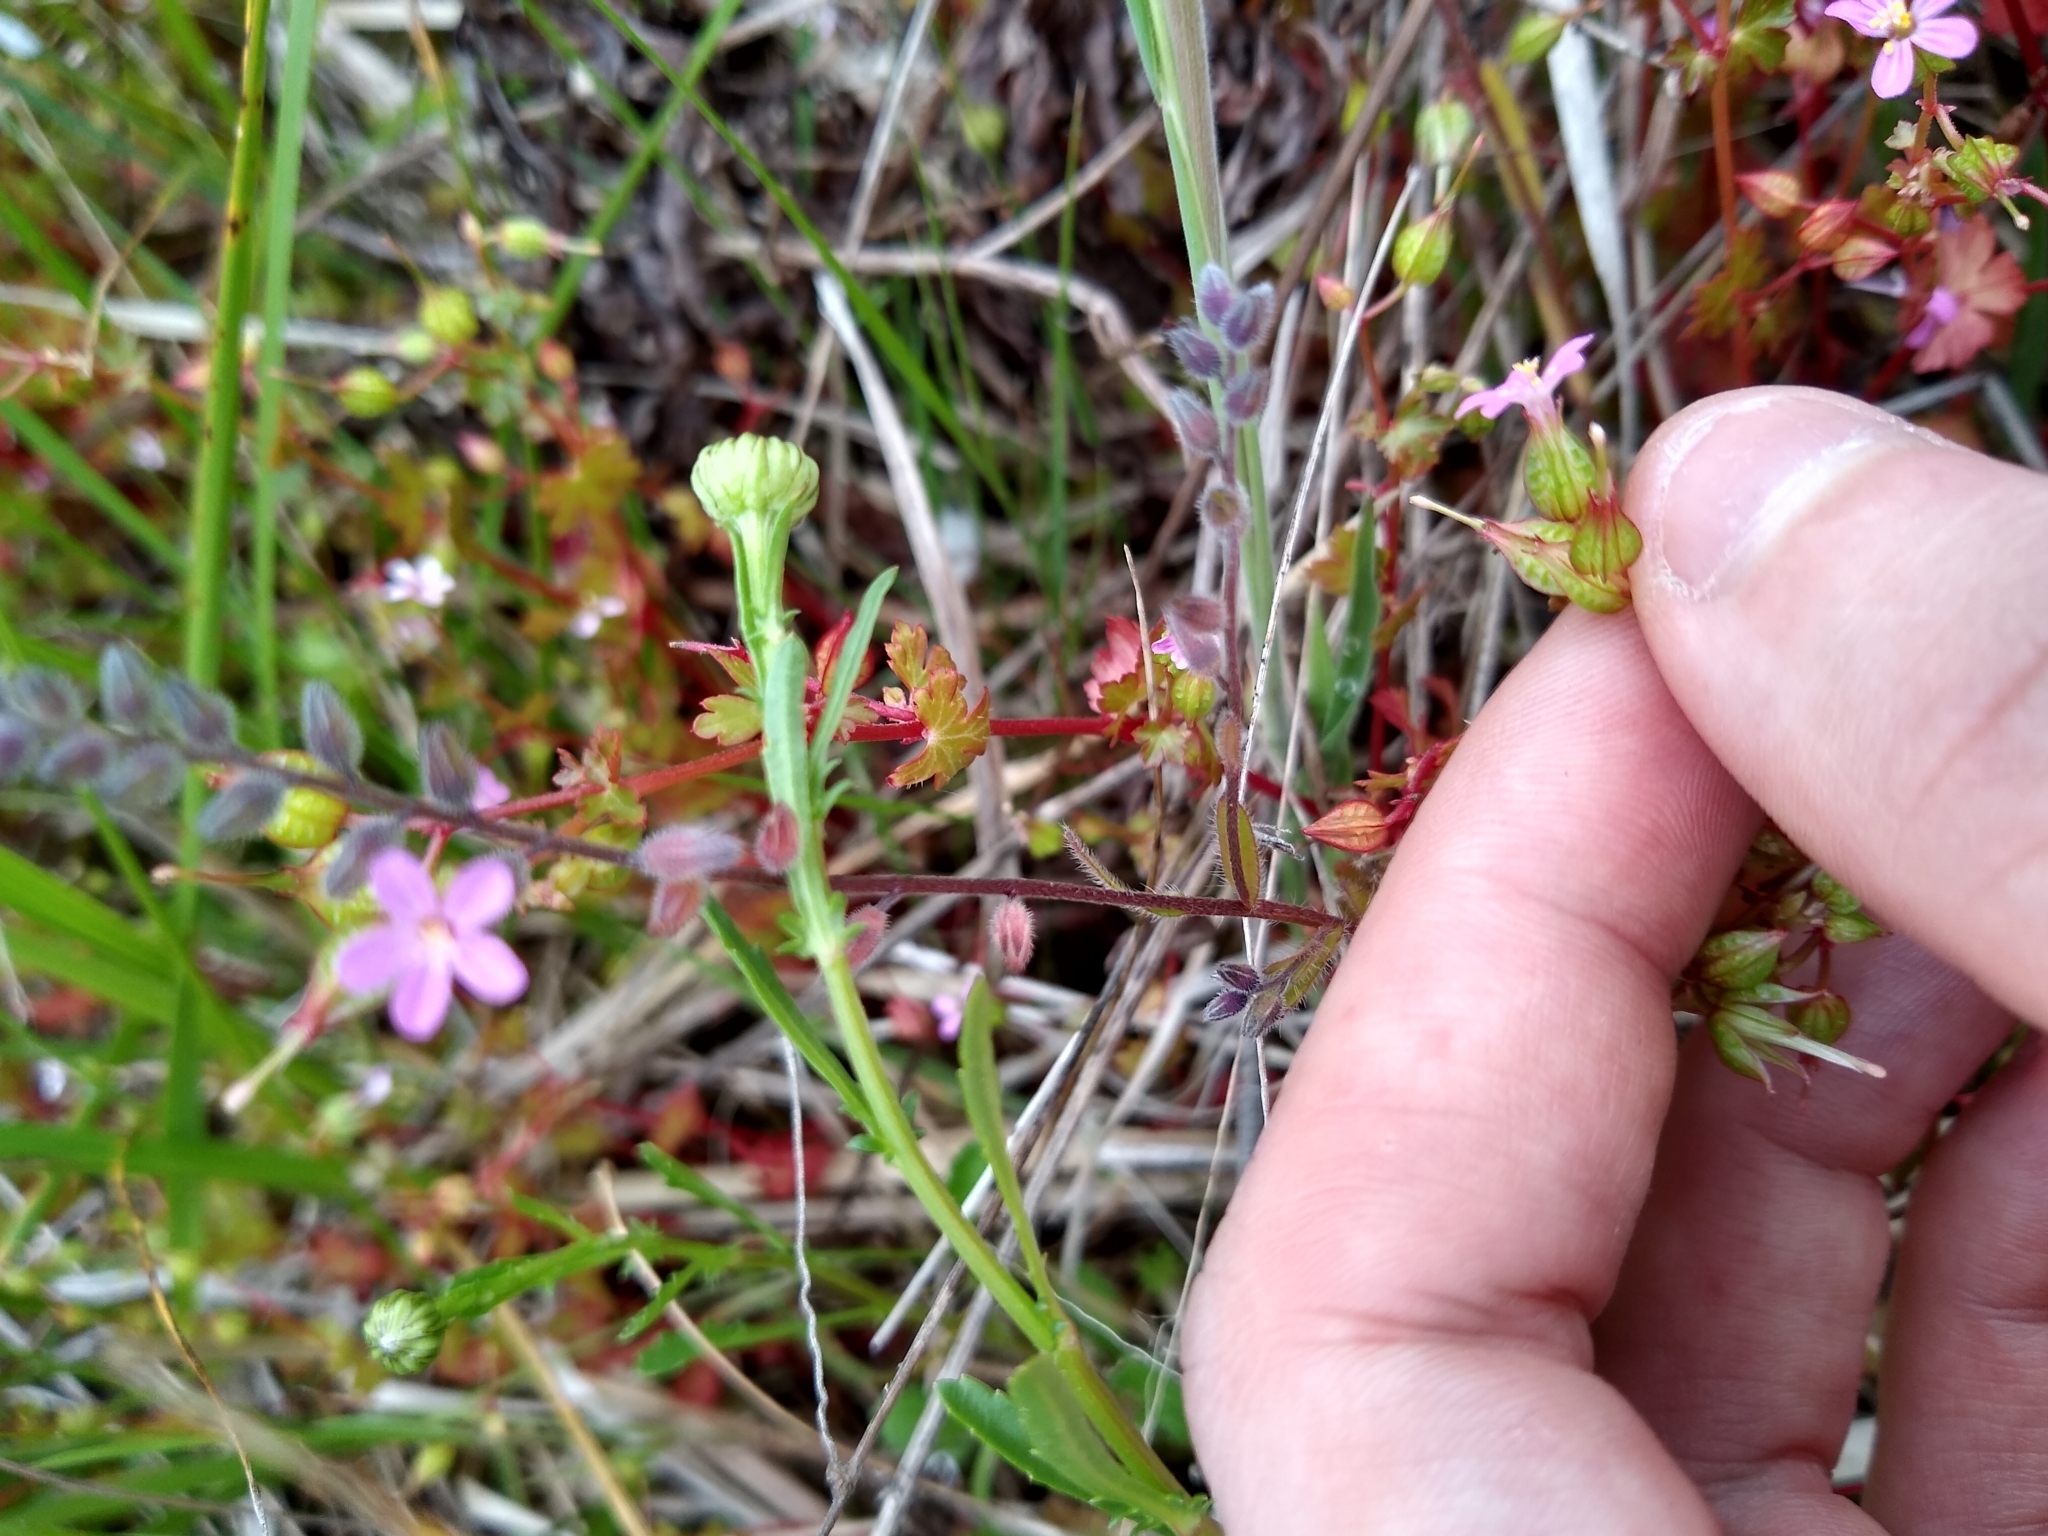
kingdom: Plantae
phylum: Tracheophyta
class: Magnoliopsida
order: Geraniales
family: Geraniaceae
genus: Geranium
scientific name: Geranium lucidum
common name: Shining crane's-bill
